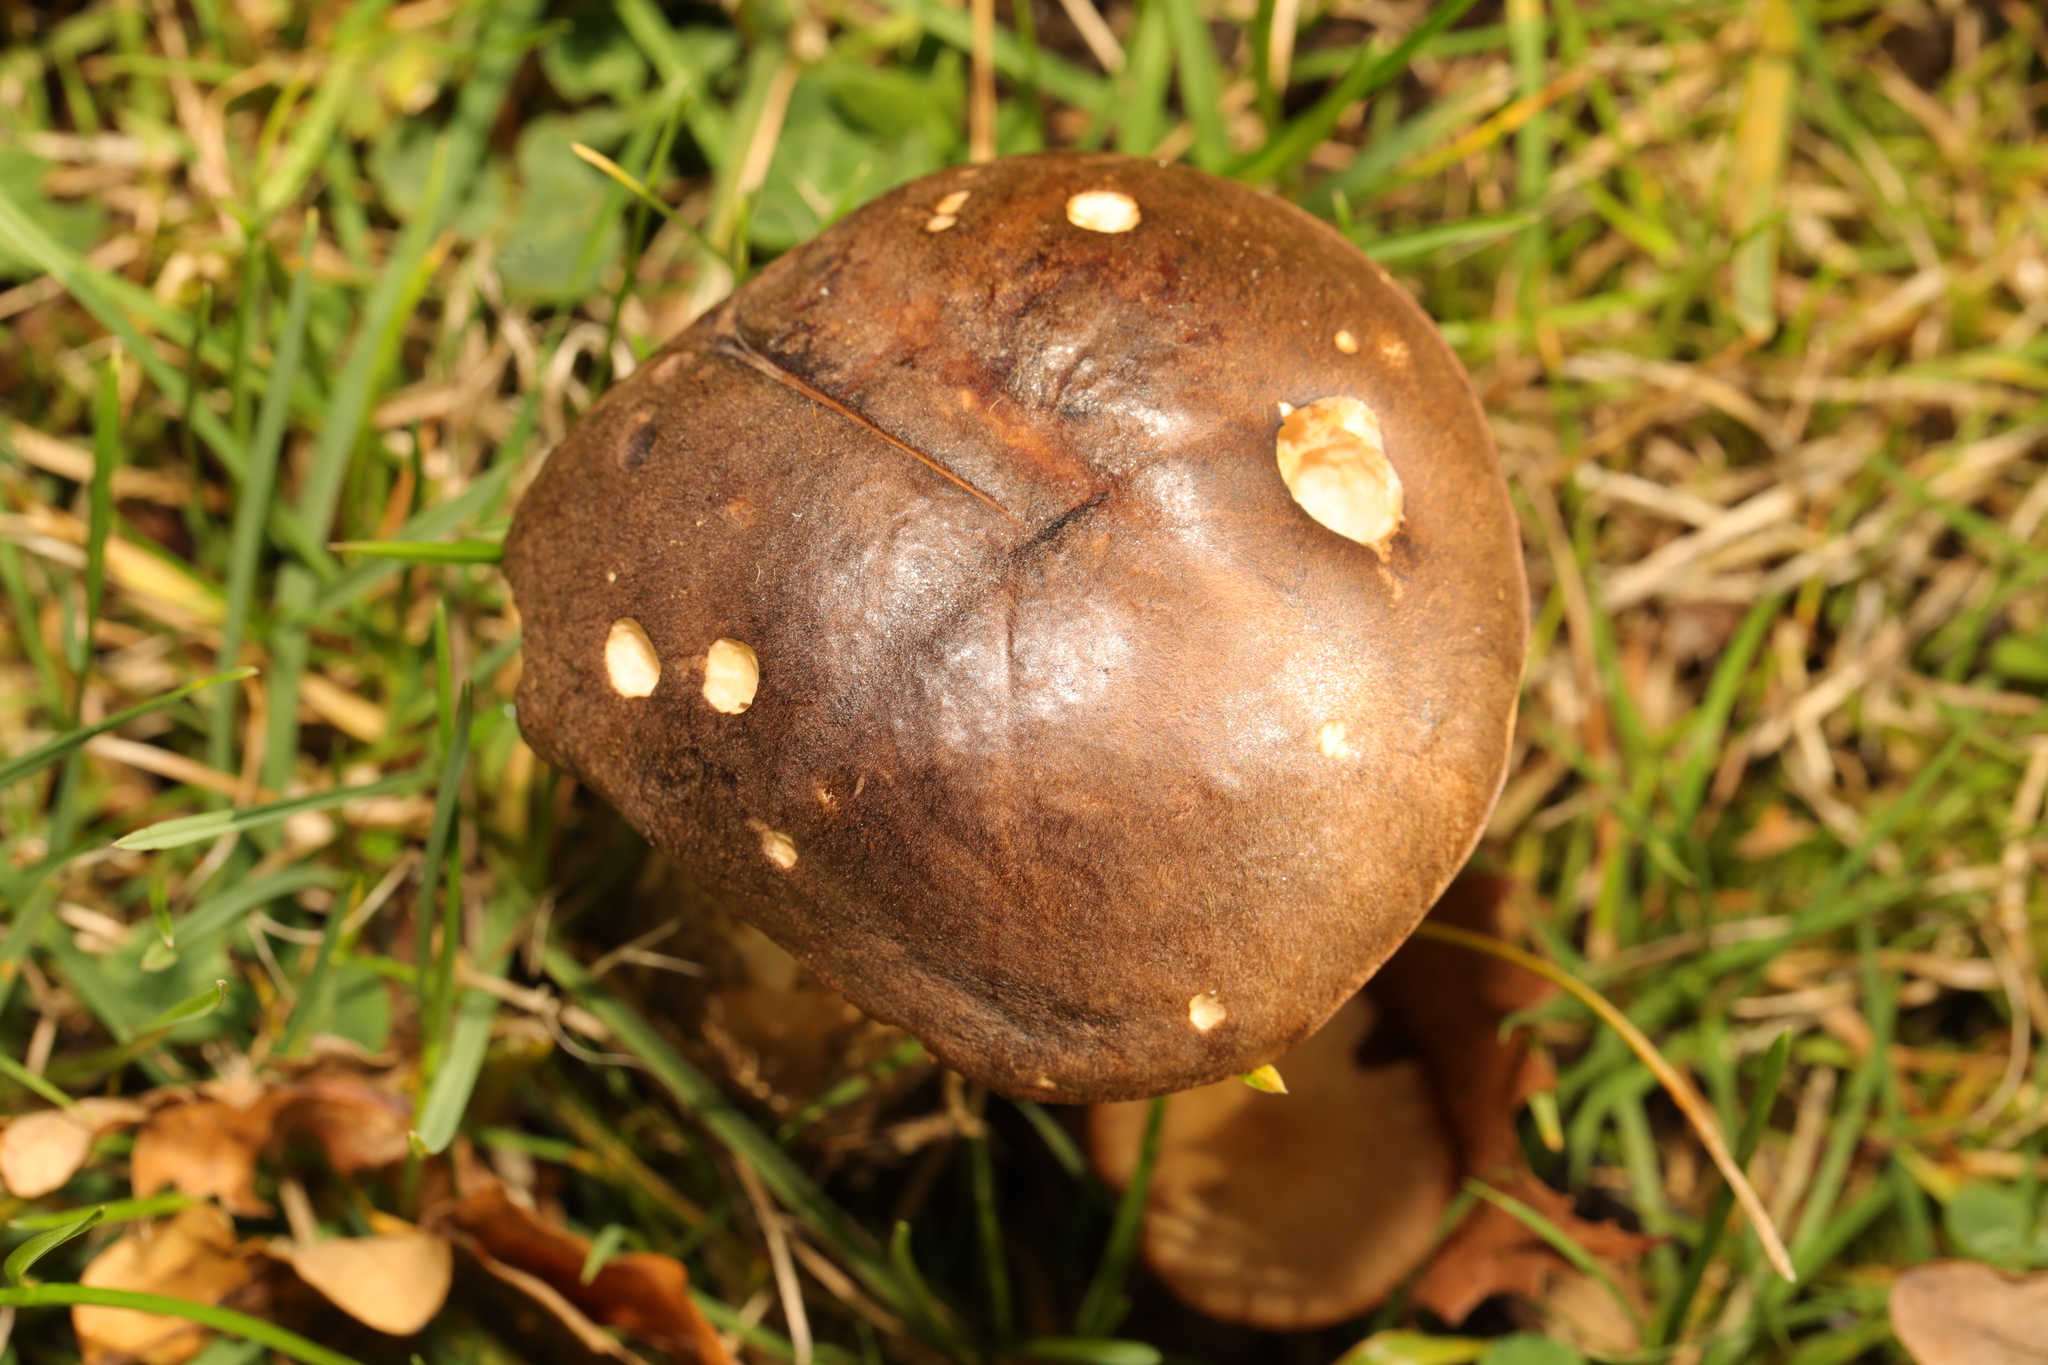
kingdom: Fungi
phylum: Basidiomycota
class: Agaricomycetes
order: Boletales
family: Boletaceae
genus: Leccinum
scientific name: Leccinum scabrum
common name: Blushing bolete
